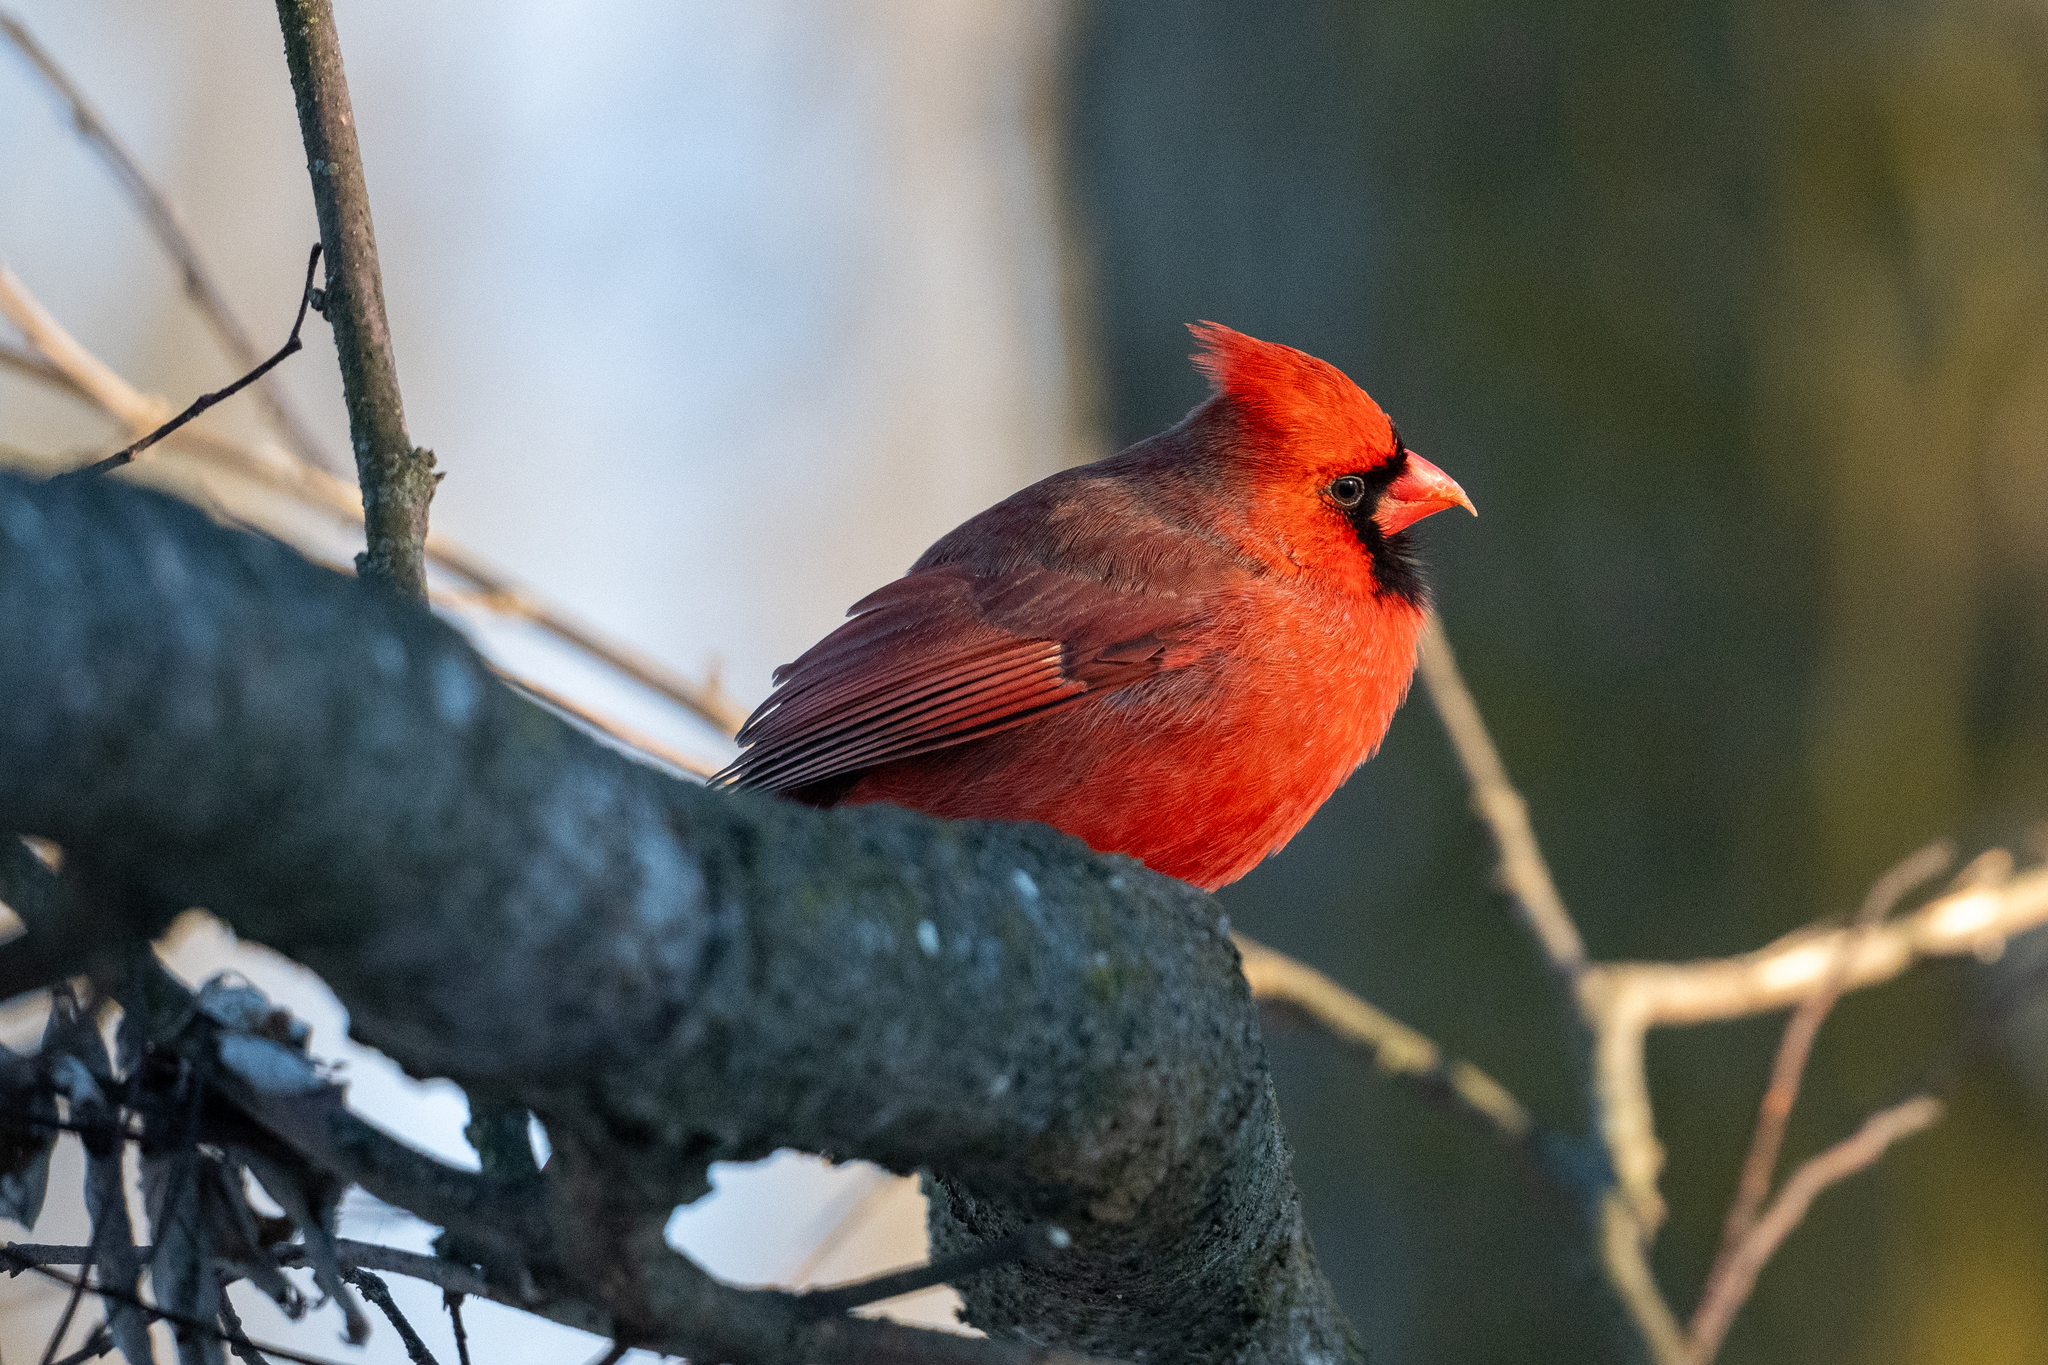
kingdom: Animalia
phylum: Chordata
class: Aves
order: Passeriformes
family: Cardinalidae
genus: Cardinalis
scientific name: Cardinalis cardinalis
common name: Northern cardinal
